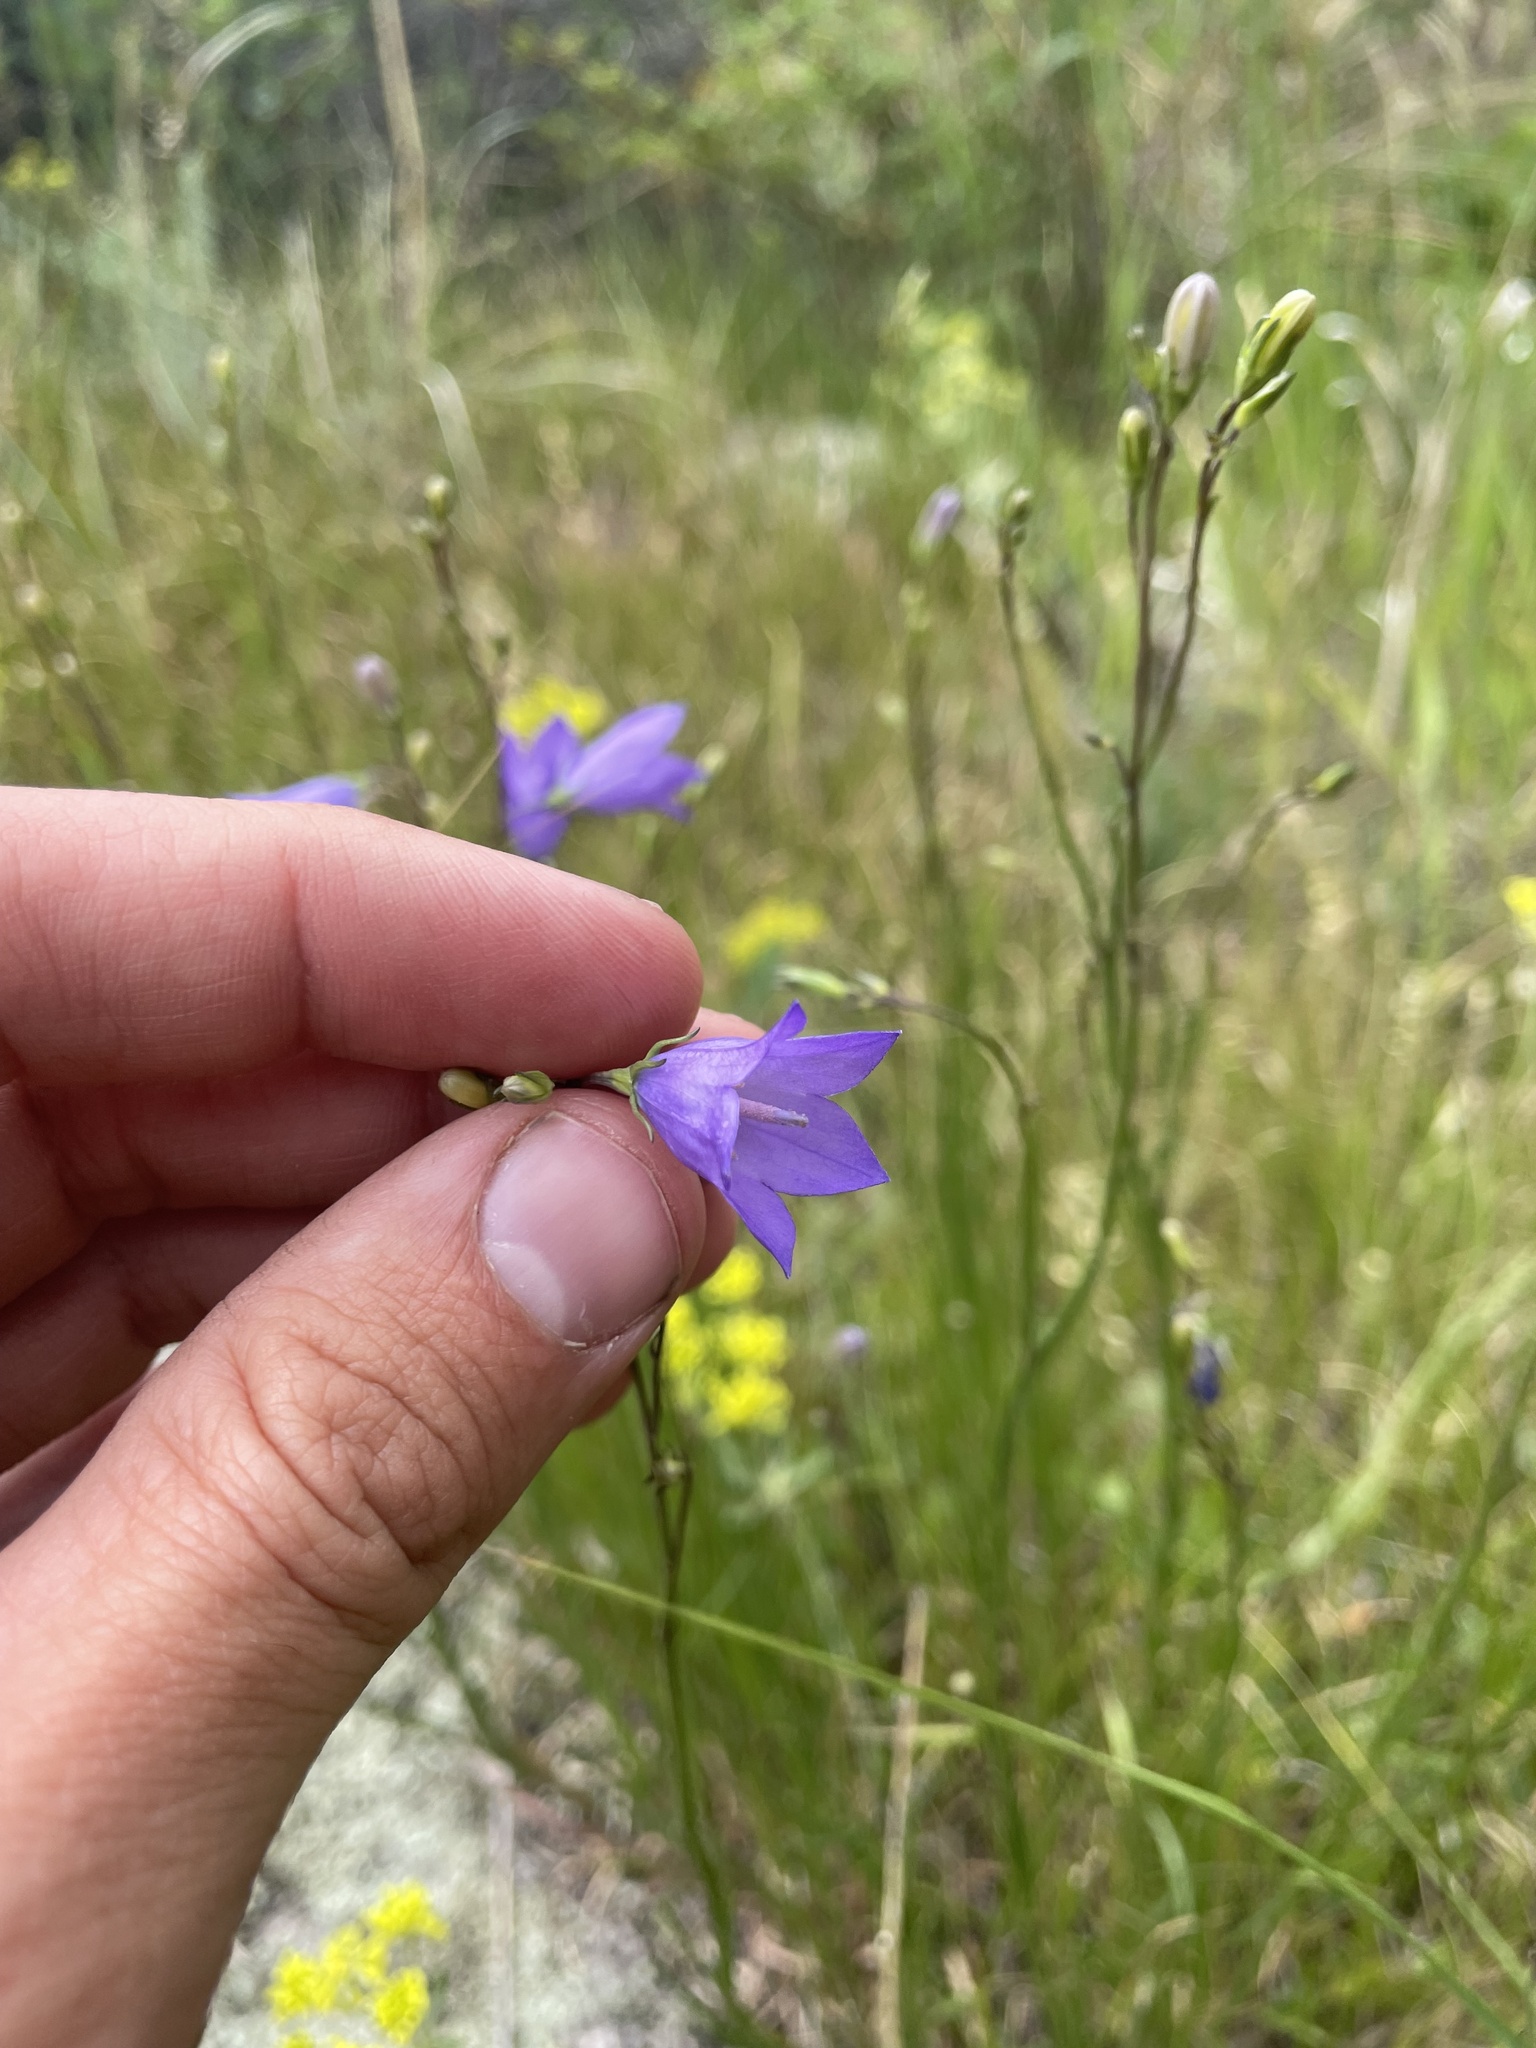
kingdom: Plantae
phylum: Tracheophyta
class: Magnoliopsida
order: Asterales
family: Campanulaceae
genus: Campanula
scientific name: Campanula petiolata
